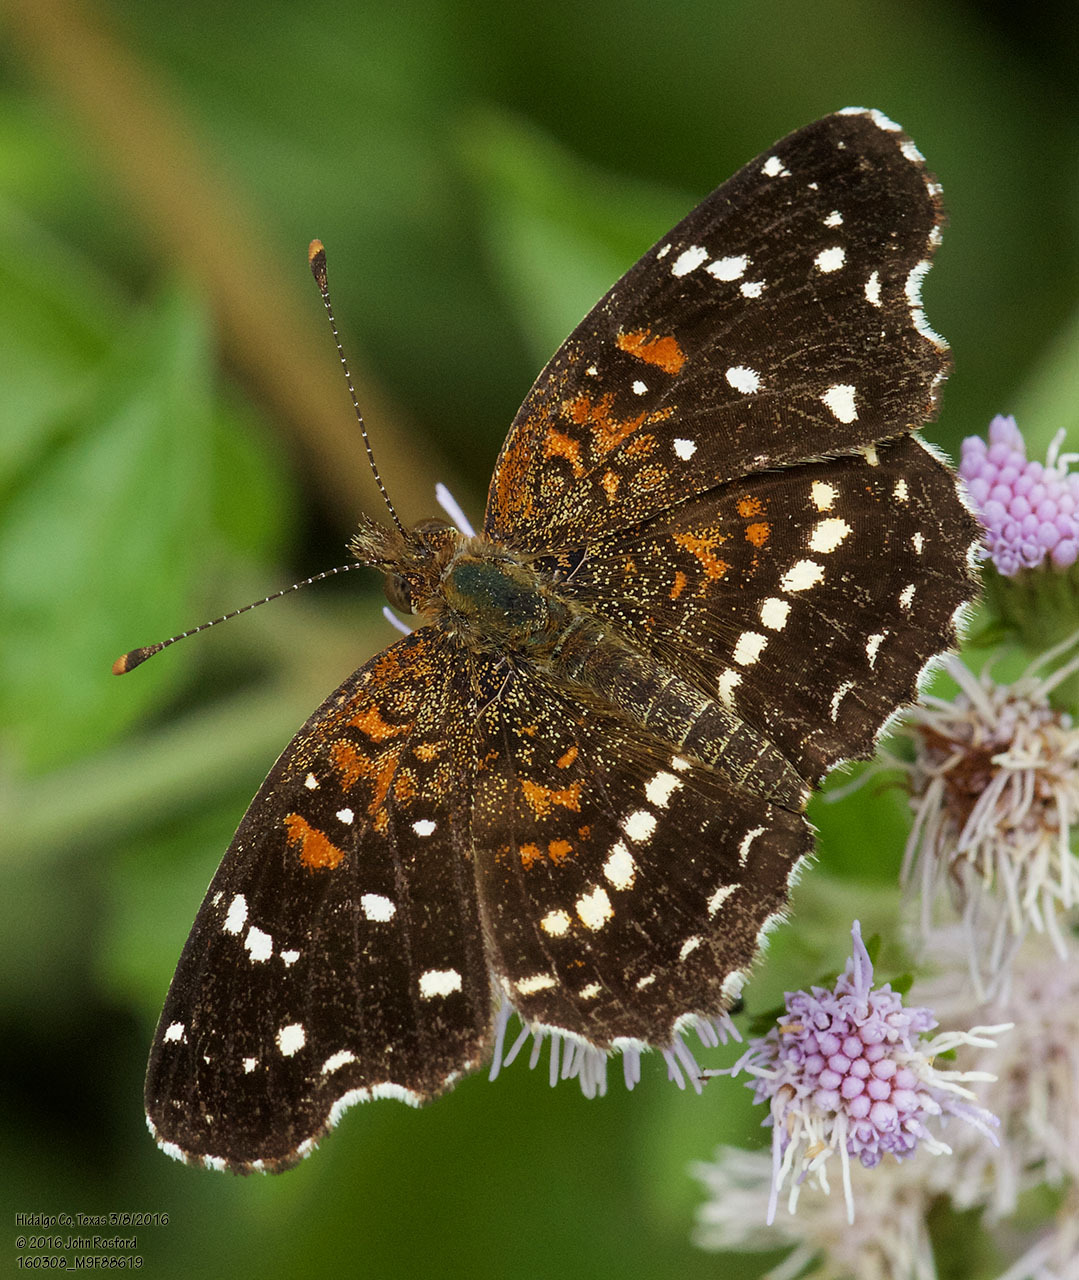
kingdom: Animalia
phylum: Arthropoda
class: Insecta
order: Lepidoptera
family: Nymphalidae
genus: Anthanassa
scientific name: Anthanassa texana
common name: Texan crescent
